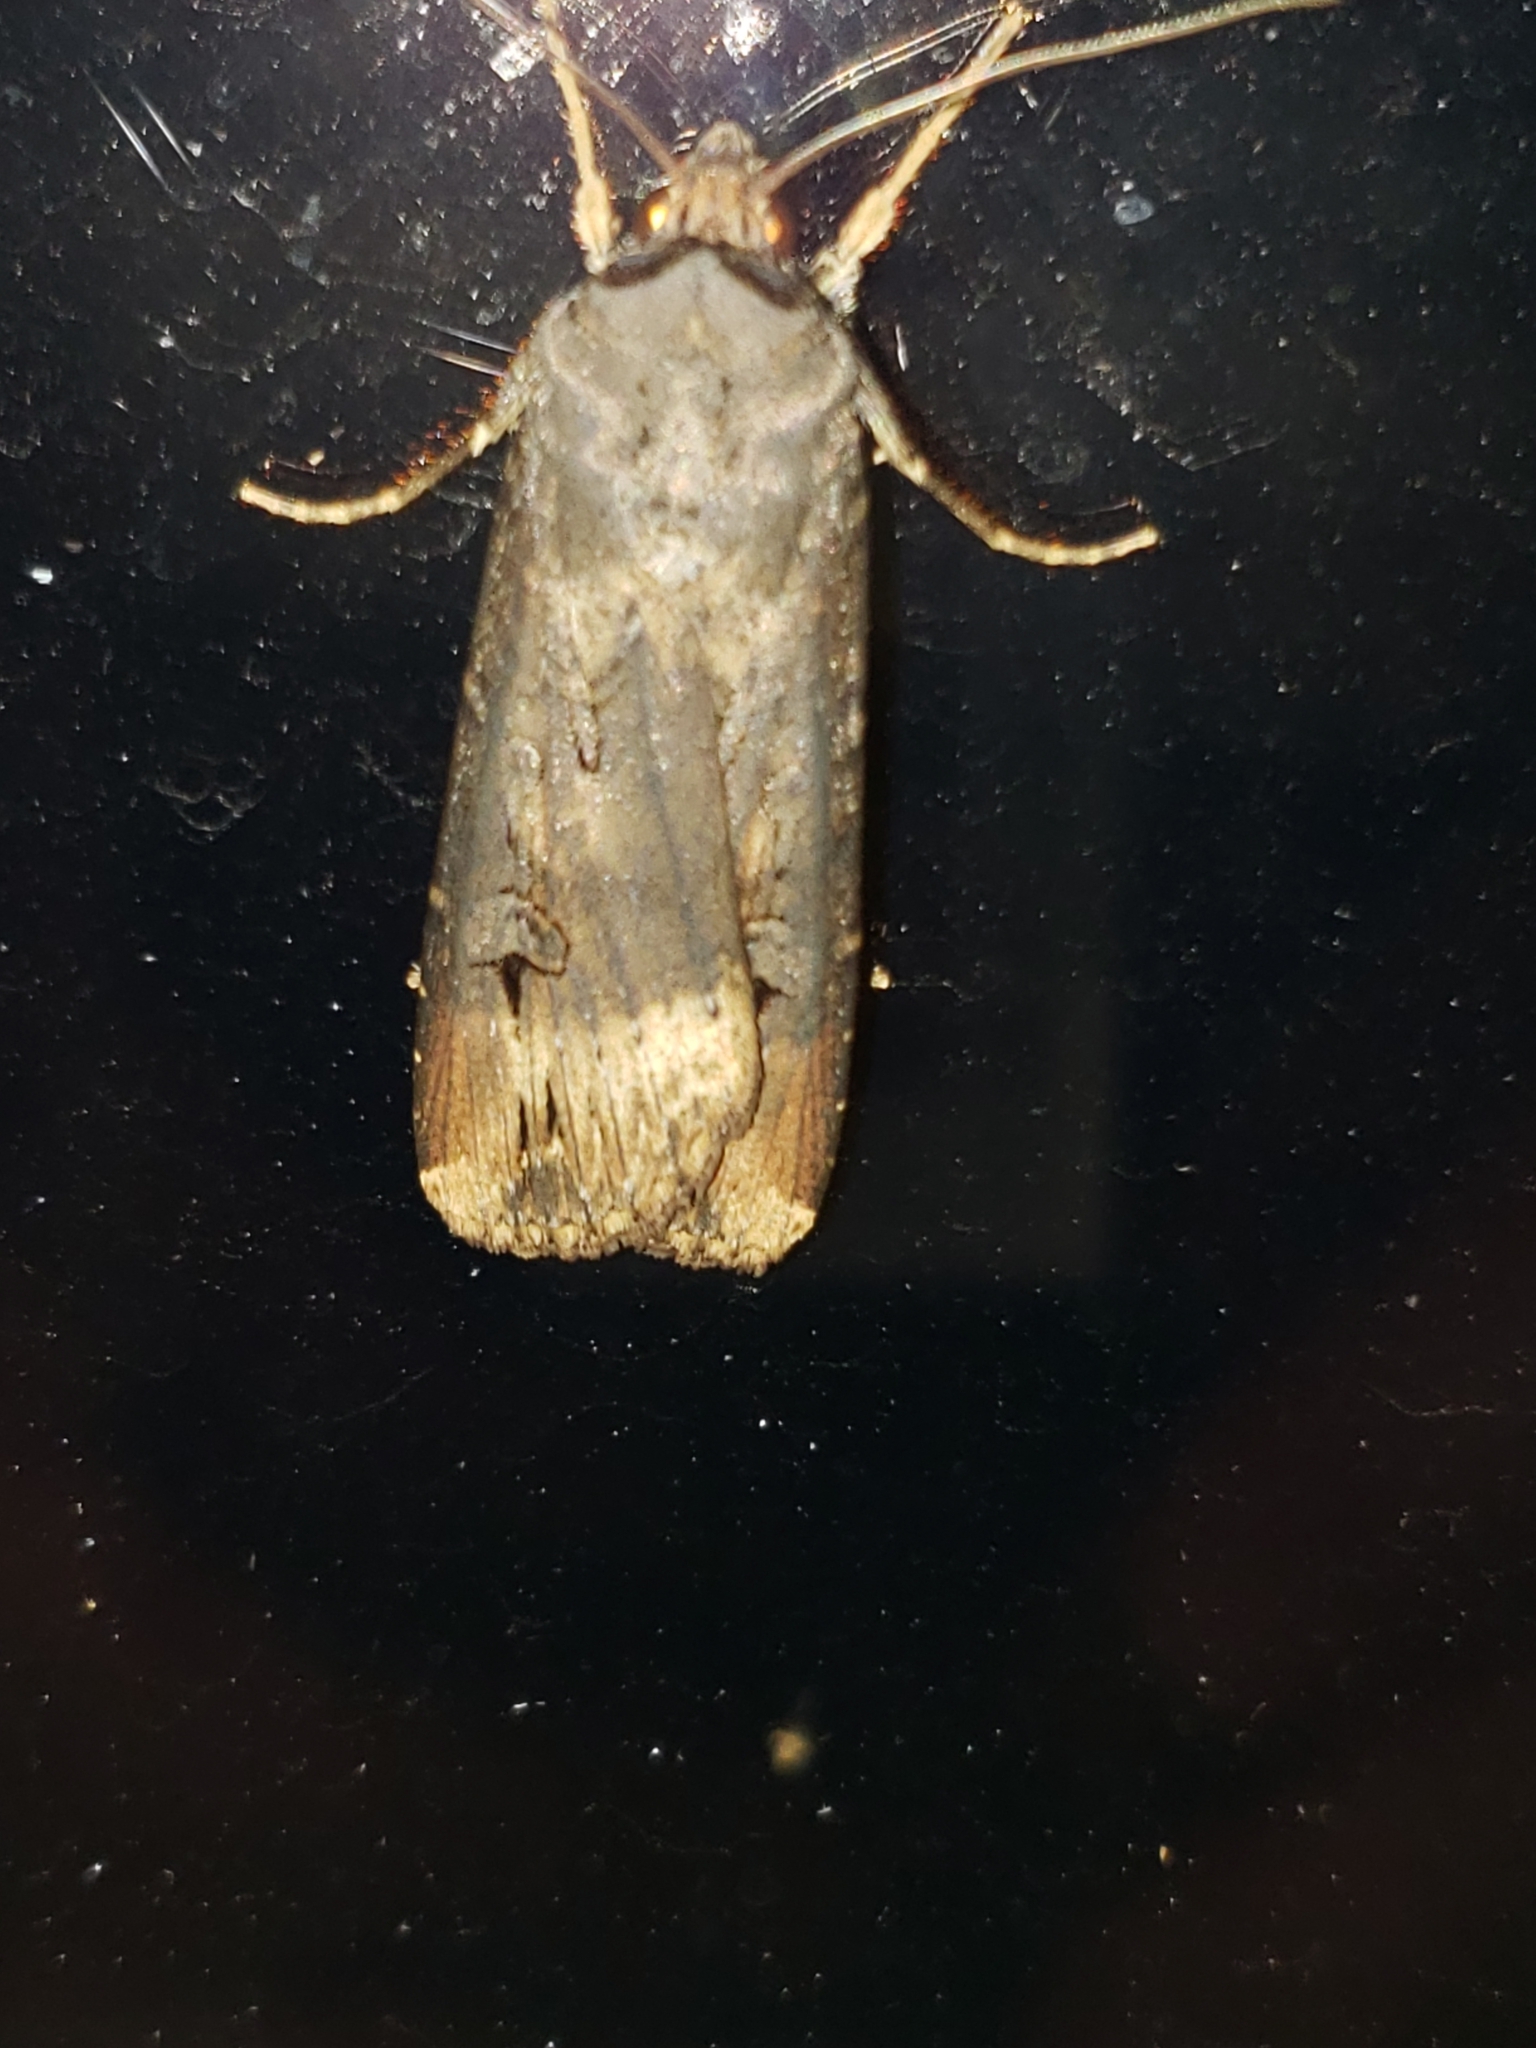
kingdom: Animalia
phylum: Arthropoda
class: Insecta
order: Lepidoptera
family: Noctuidae
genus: Agrotis
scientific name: Agrotis ipsilon
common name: Dark sword-grass
